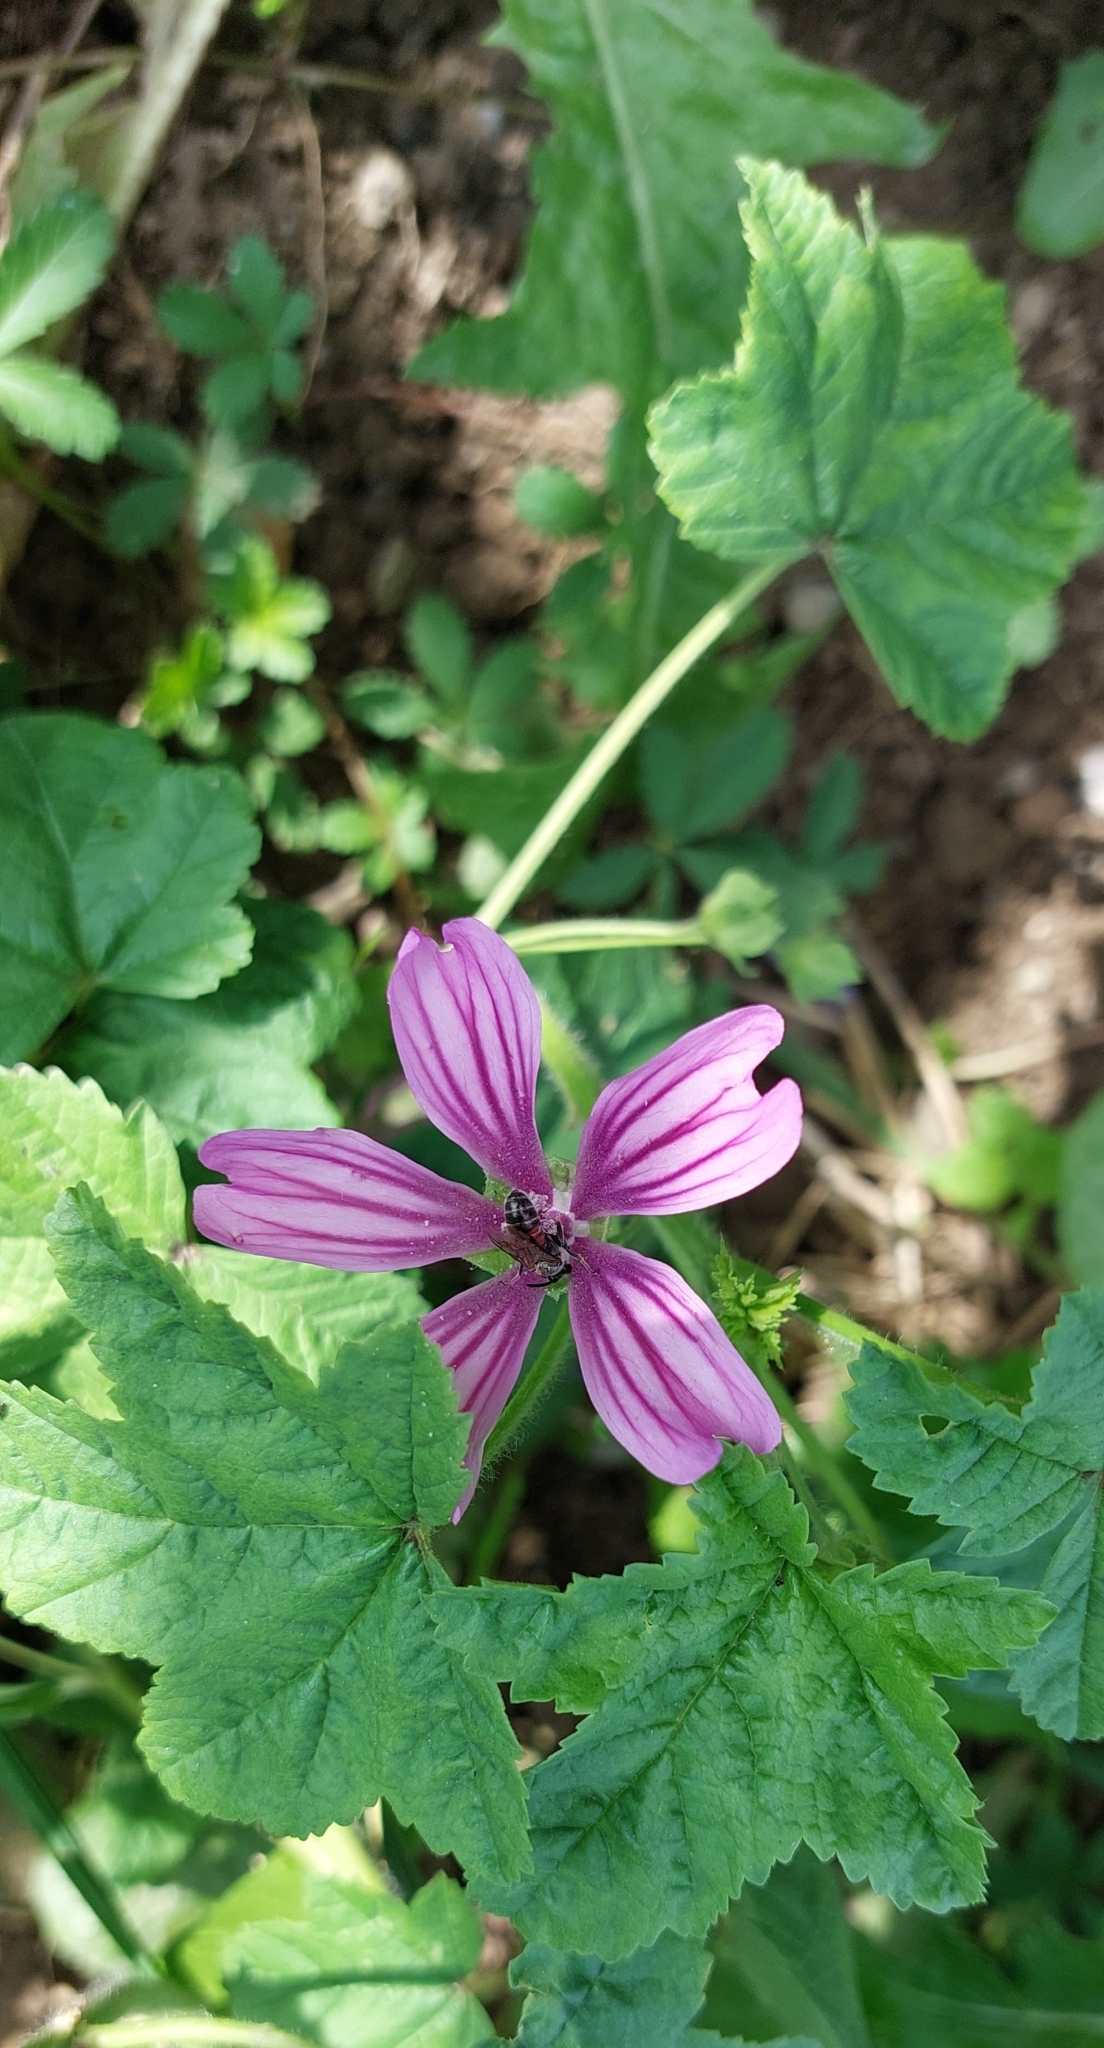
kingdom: Plantae
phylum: Tracheophyta
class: Magnoliopsida
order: Malvales
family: Malvaceae
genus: Malva
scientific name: Malva sylvestris
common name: Common mallow
